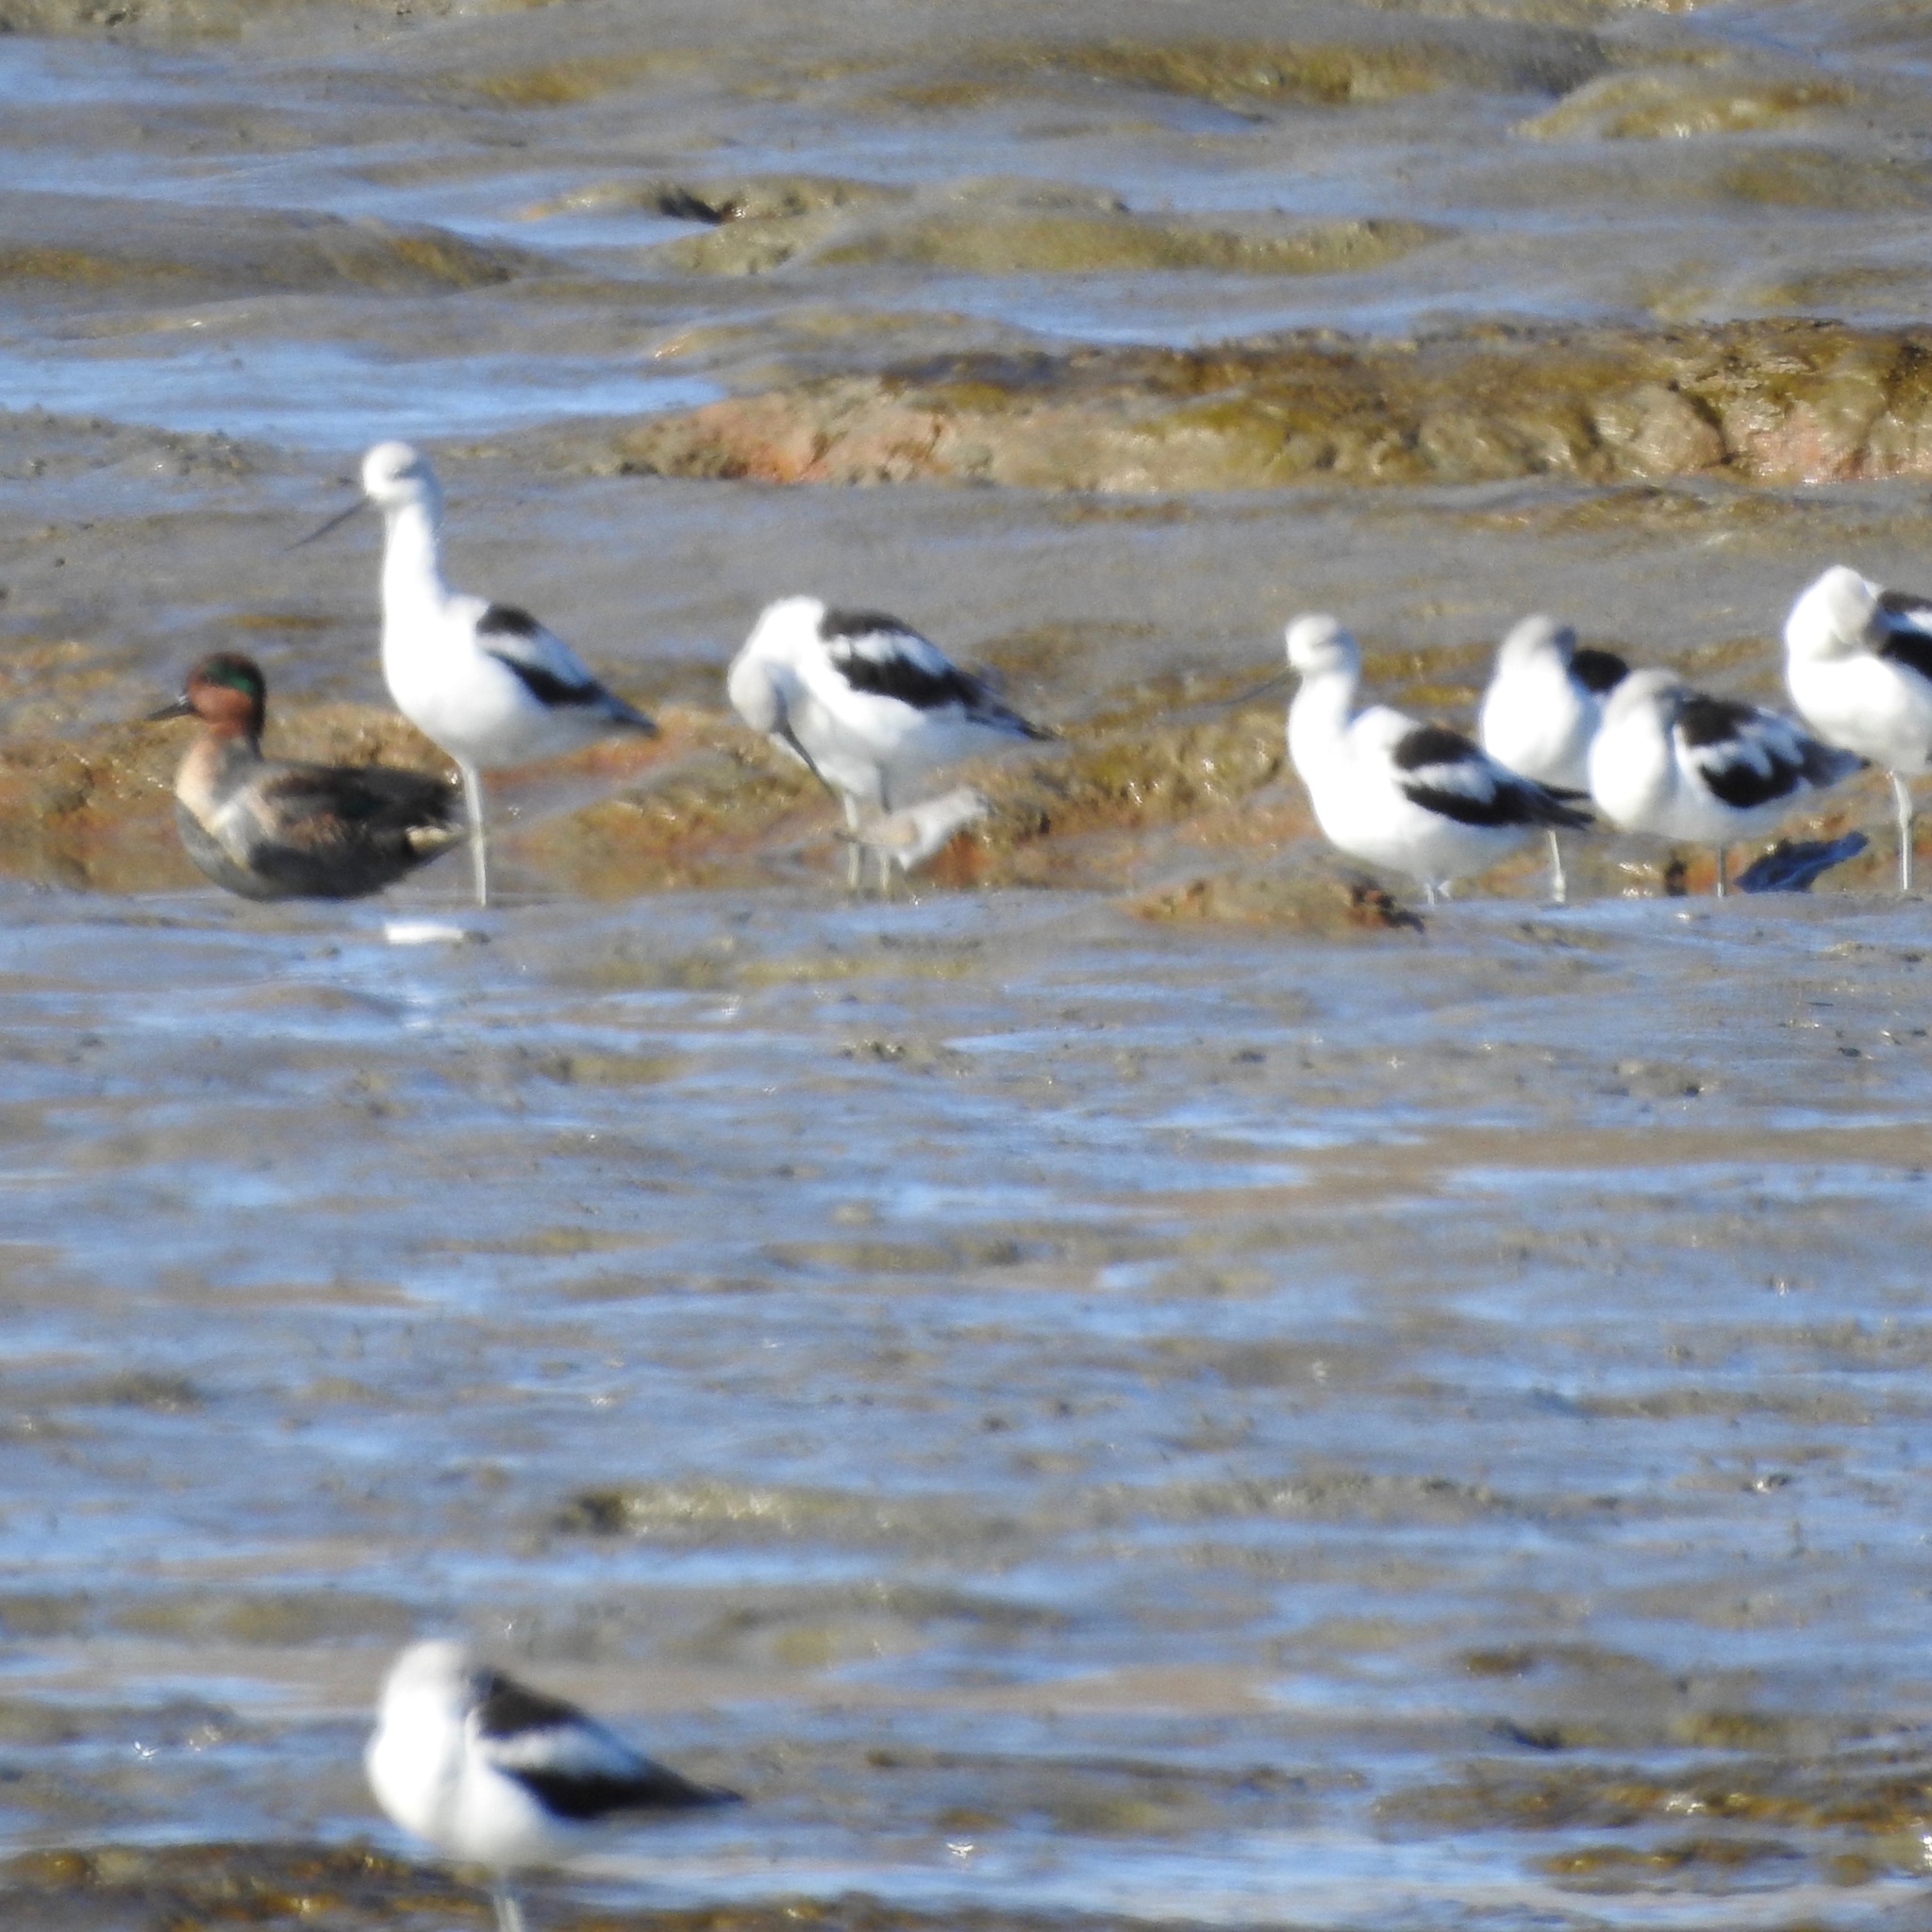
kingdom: Animalia
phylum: Chordata
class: Aves
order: Charadriiformes
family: Recurvirostridae
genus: Recurvirostra
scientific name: Recurvirostra americana
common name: American avocet
